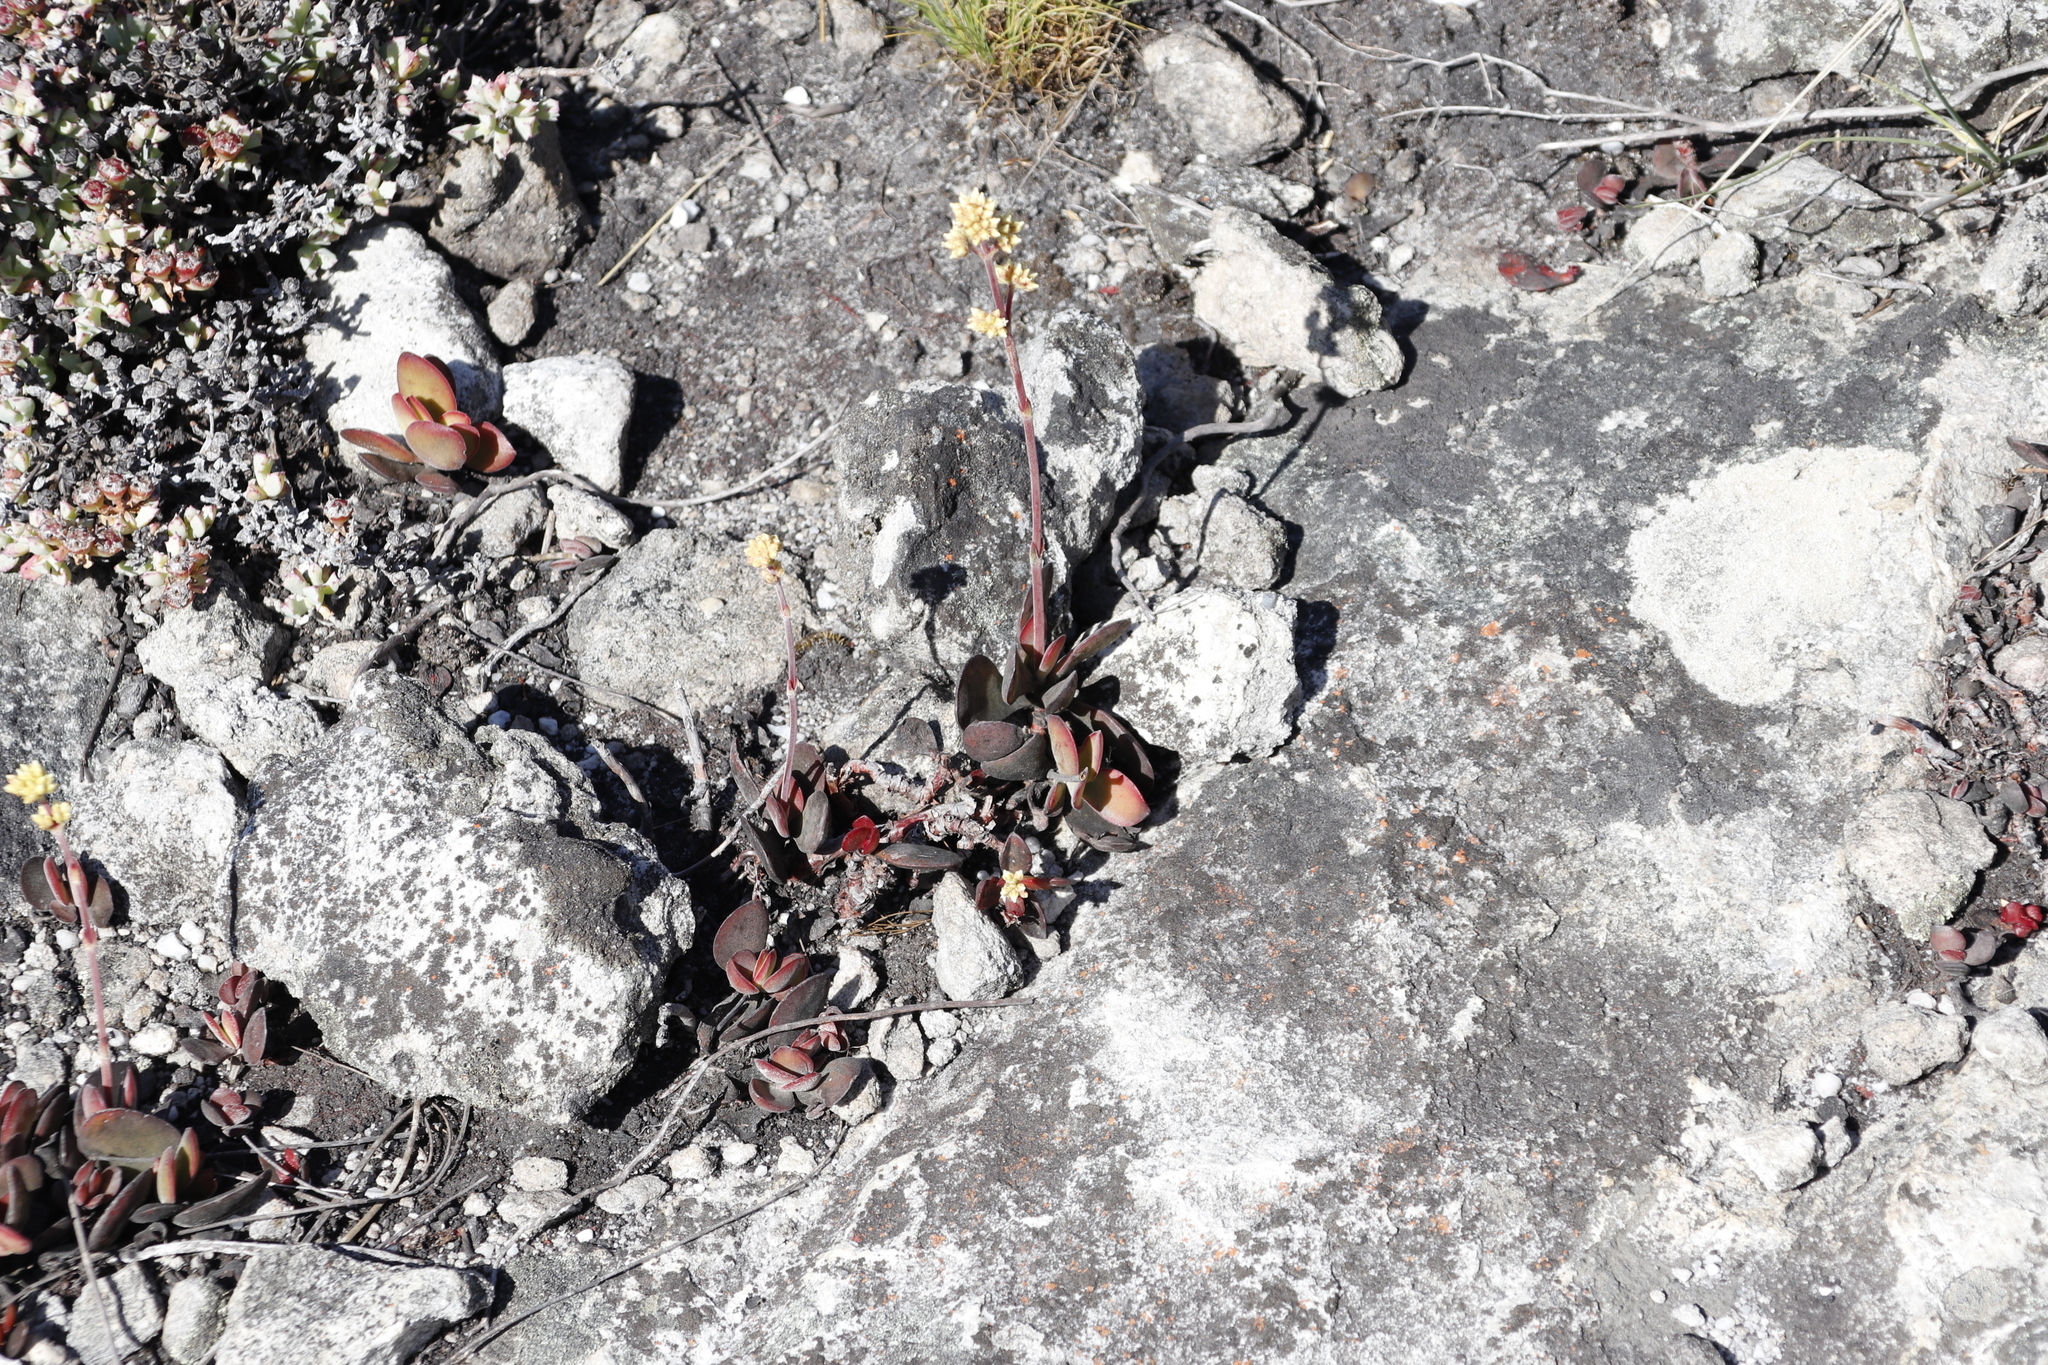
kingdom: Plantae
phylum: Tracheophyta
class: Magnoliopsida
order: Saxifragales
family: Crassulaceae
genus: Crassula
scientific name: Crassula atropurpurea
